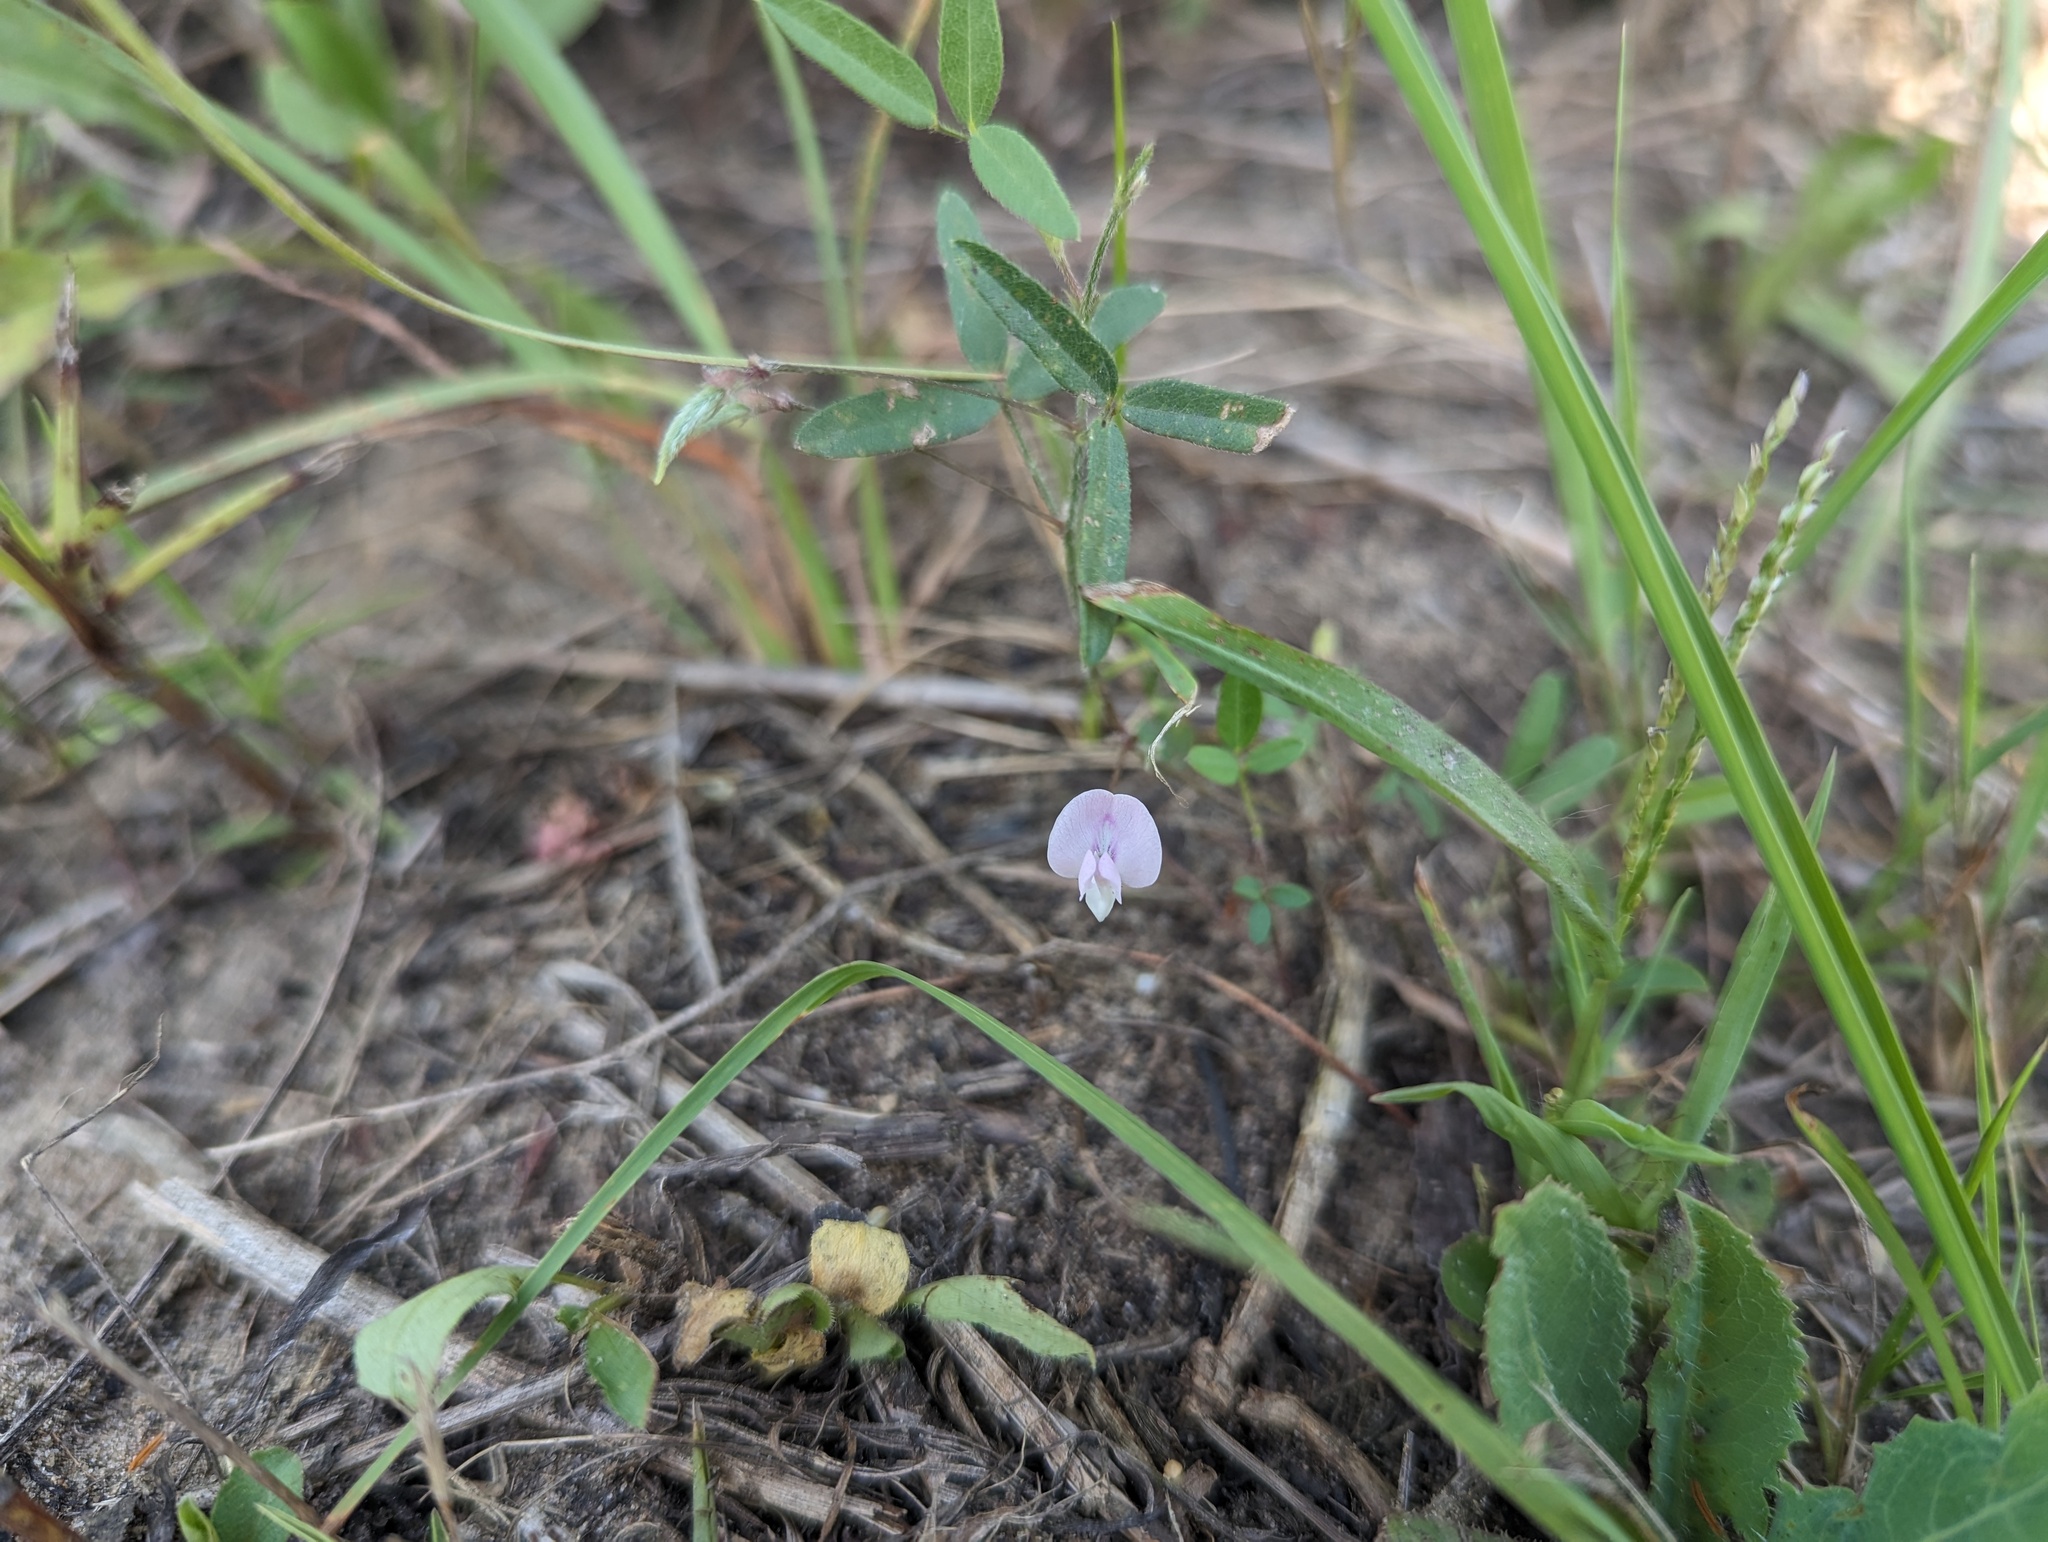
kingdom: Plantae
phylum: Tracheophyta
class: Magnoliopsida
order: Fabales
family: Fabaceae
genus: Strophostyles
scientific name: Strophostyles leiosperma
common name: Smooth-seed wild bean
